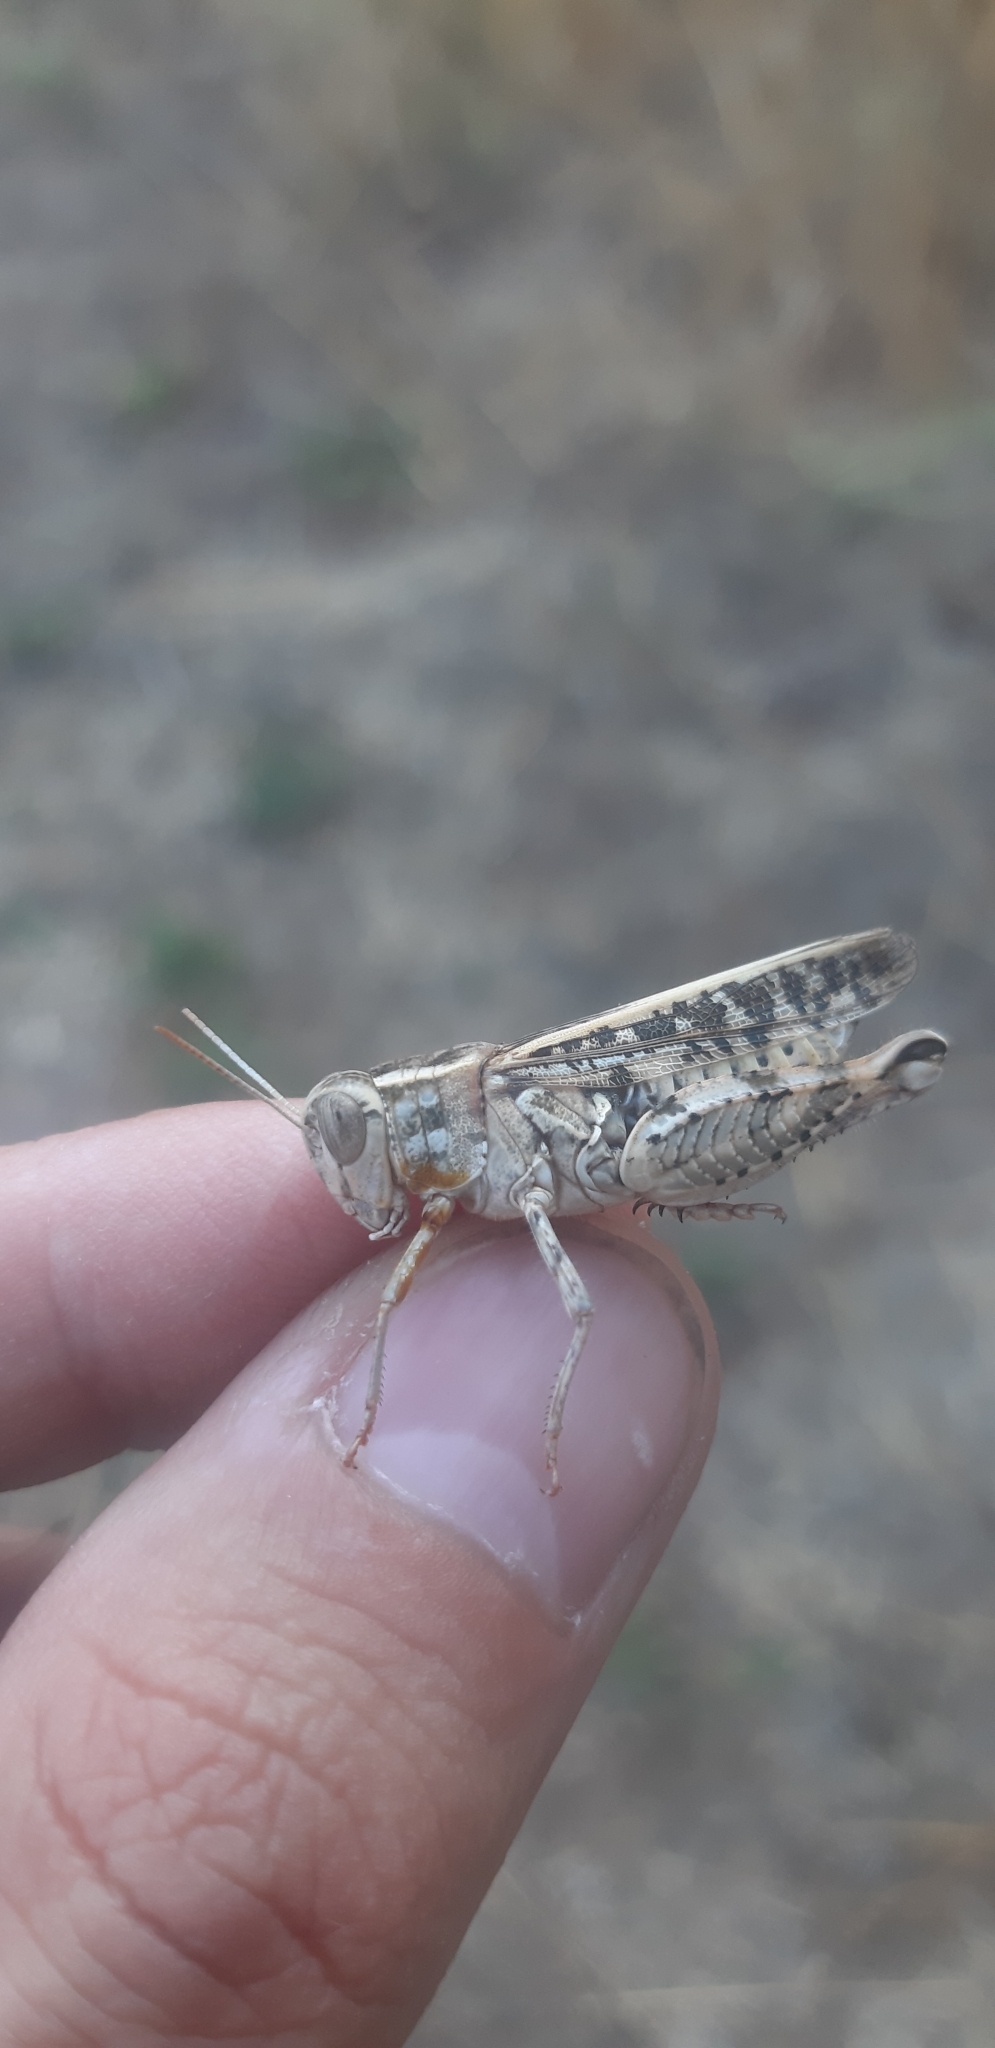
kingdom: Animalia
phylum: Arthropoda
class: Insecta
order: Orthoptera
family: Acrididae
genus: Calliptamus
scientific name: Calliptamus italicus
